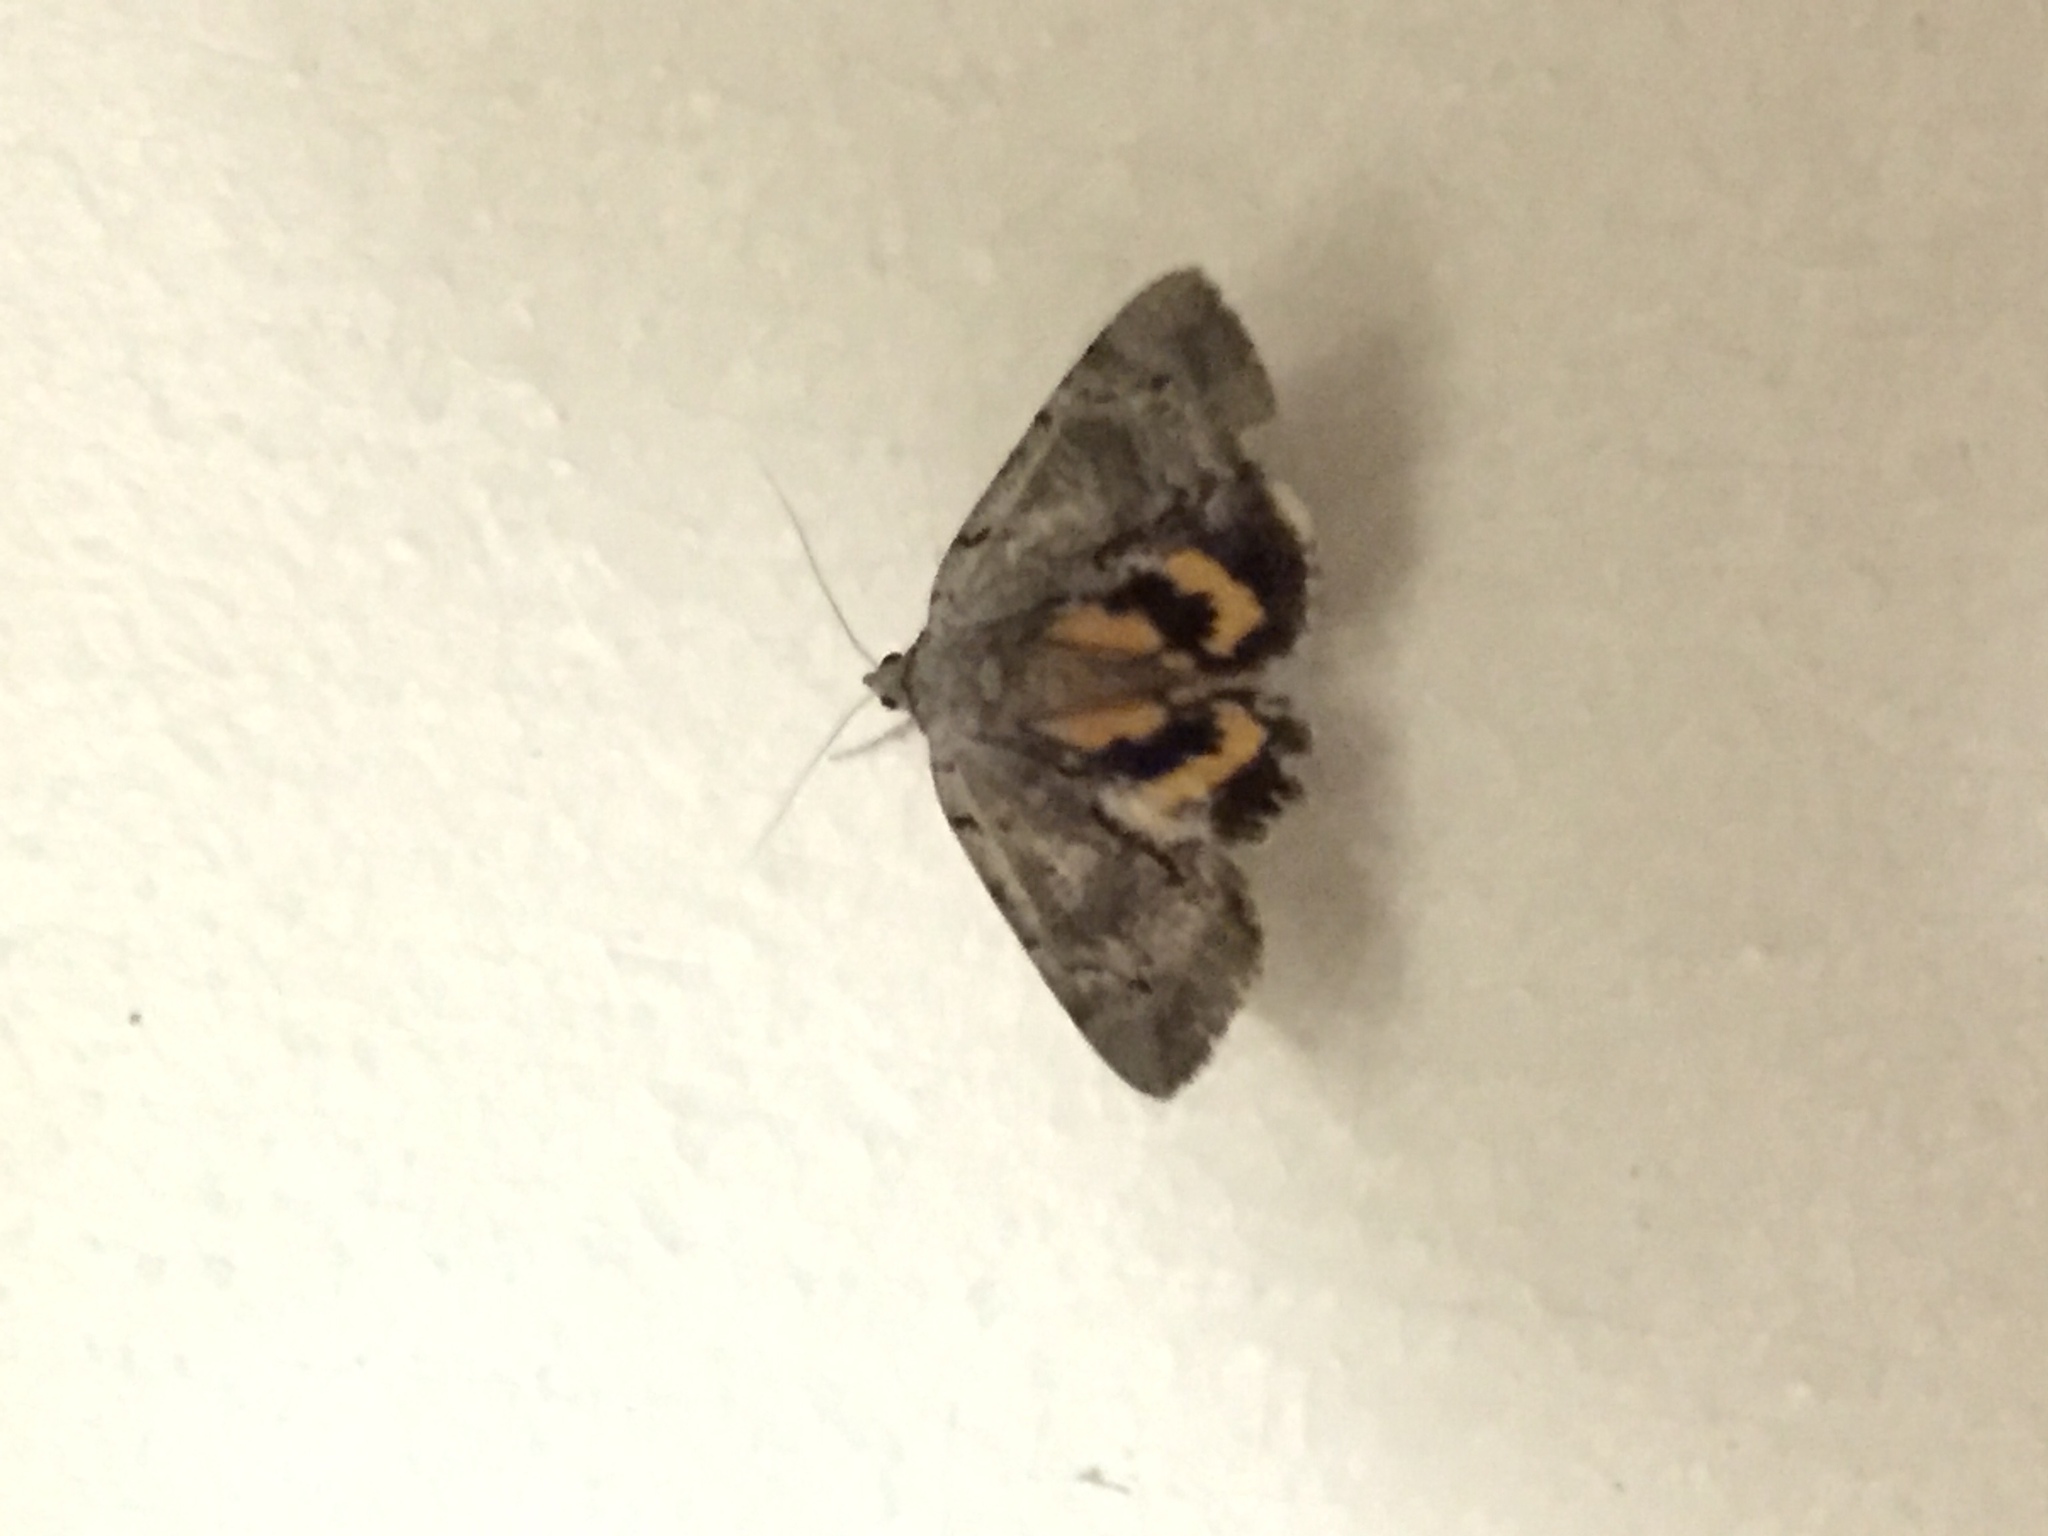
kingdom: Animalia
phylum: Arthropoda
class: Insecta
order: Lepidoptera
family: Erebidae
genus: Catocala
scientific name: Catocala grynea
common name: Woody underwing
